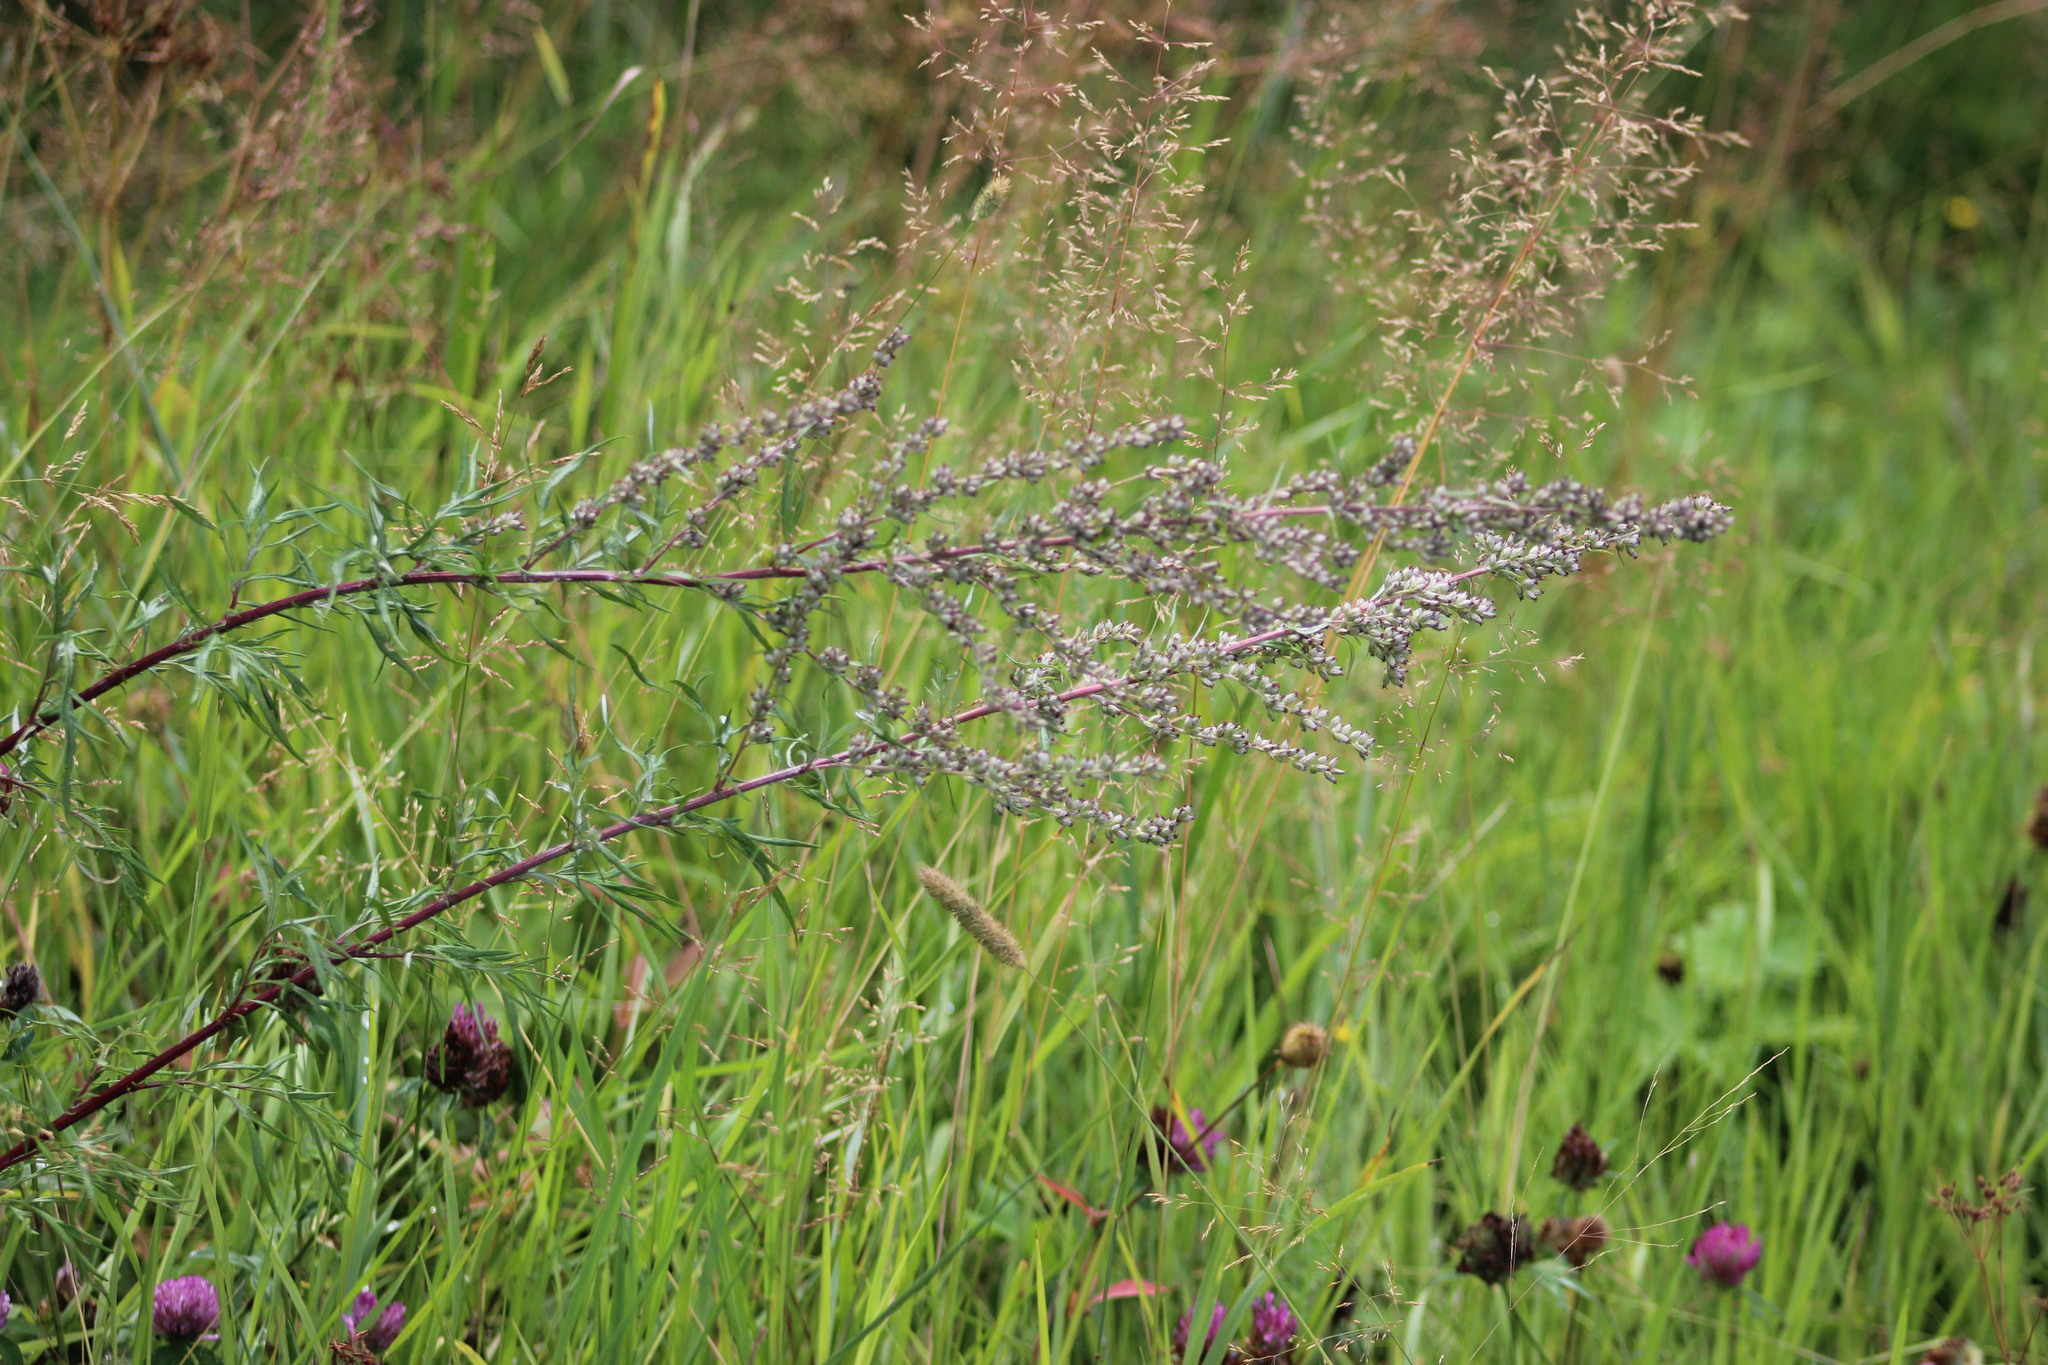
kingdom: Plantae
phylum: Tracheophyta
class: Magnoliopsida
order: Asterales
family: Asteraceae
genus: Artemisia
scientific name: Artemisia vulgaris
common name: Mugwort
